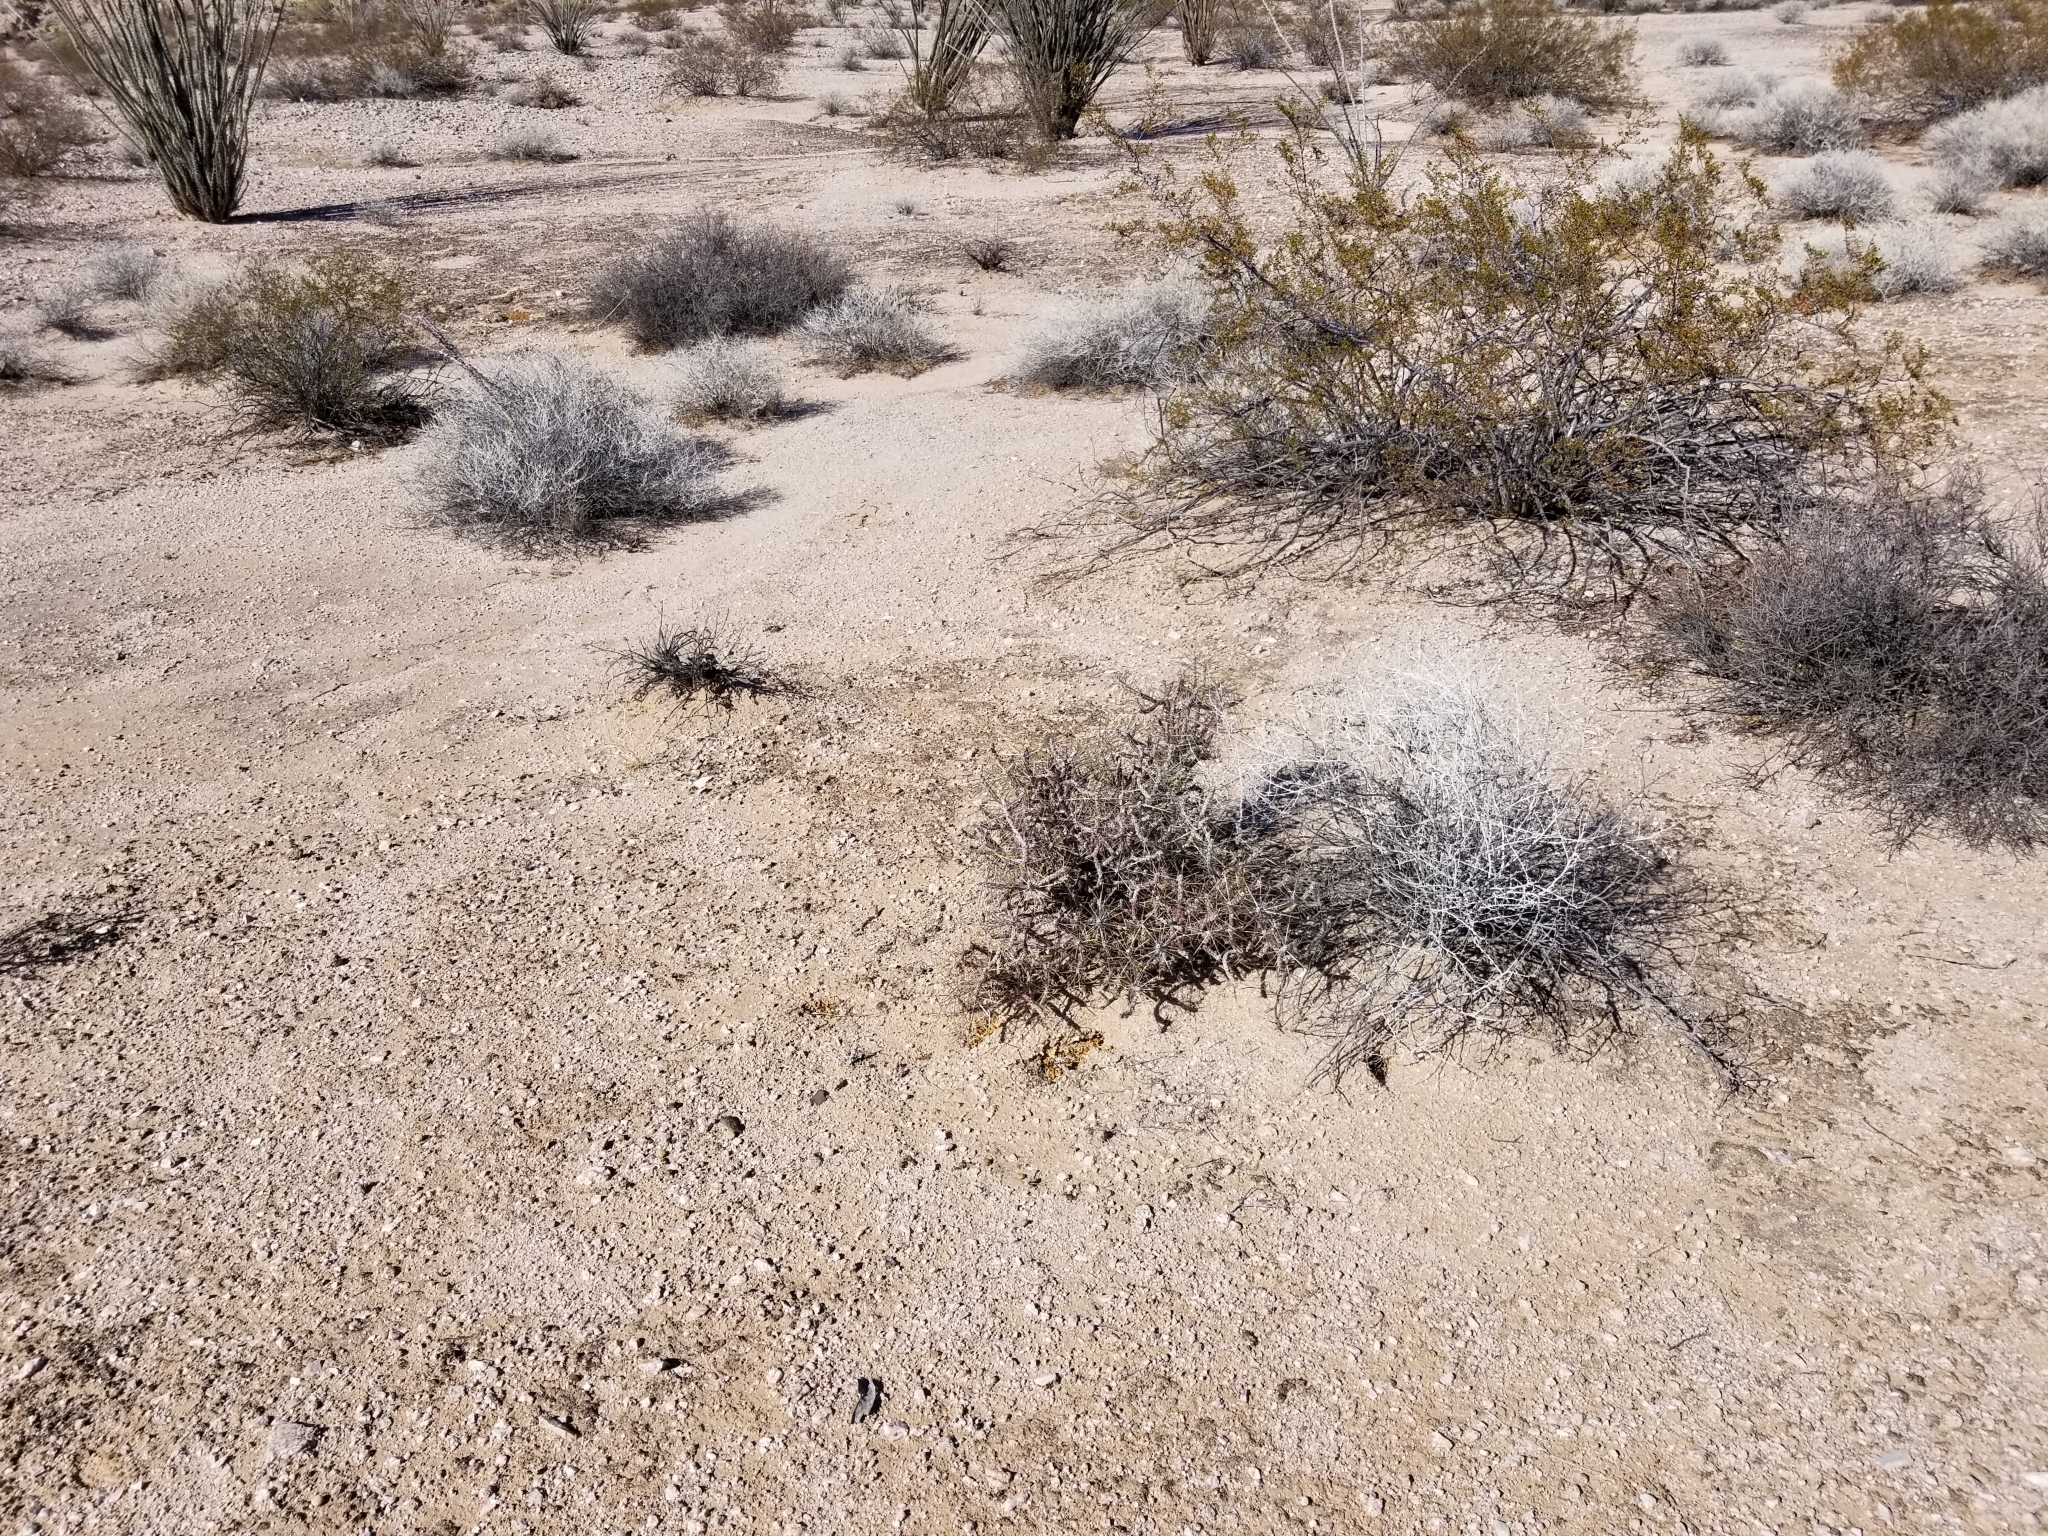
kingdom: Plantae
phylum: Tracheophyta
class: Magnoliopsida
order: Caryophyllales
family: Cactaceae
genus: Cylindropuntia
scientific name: Cylindropuntia ramosissima
